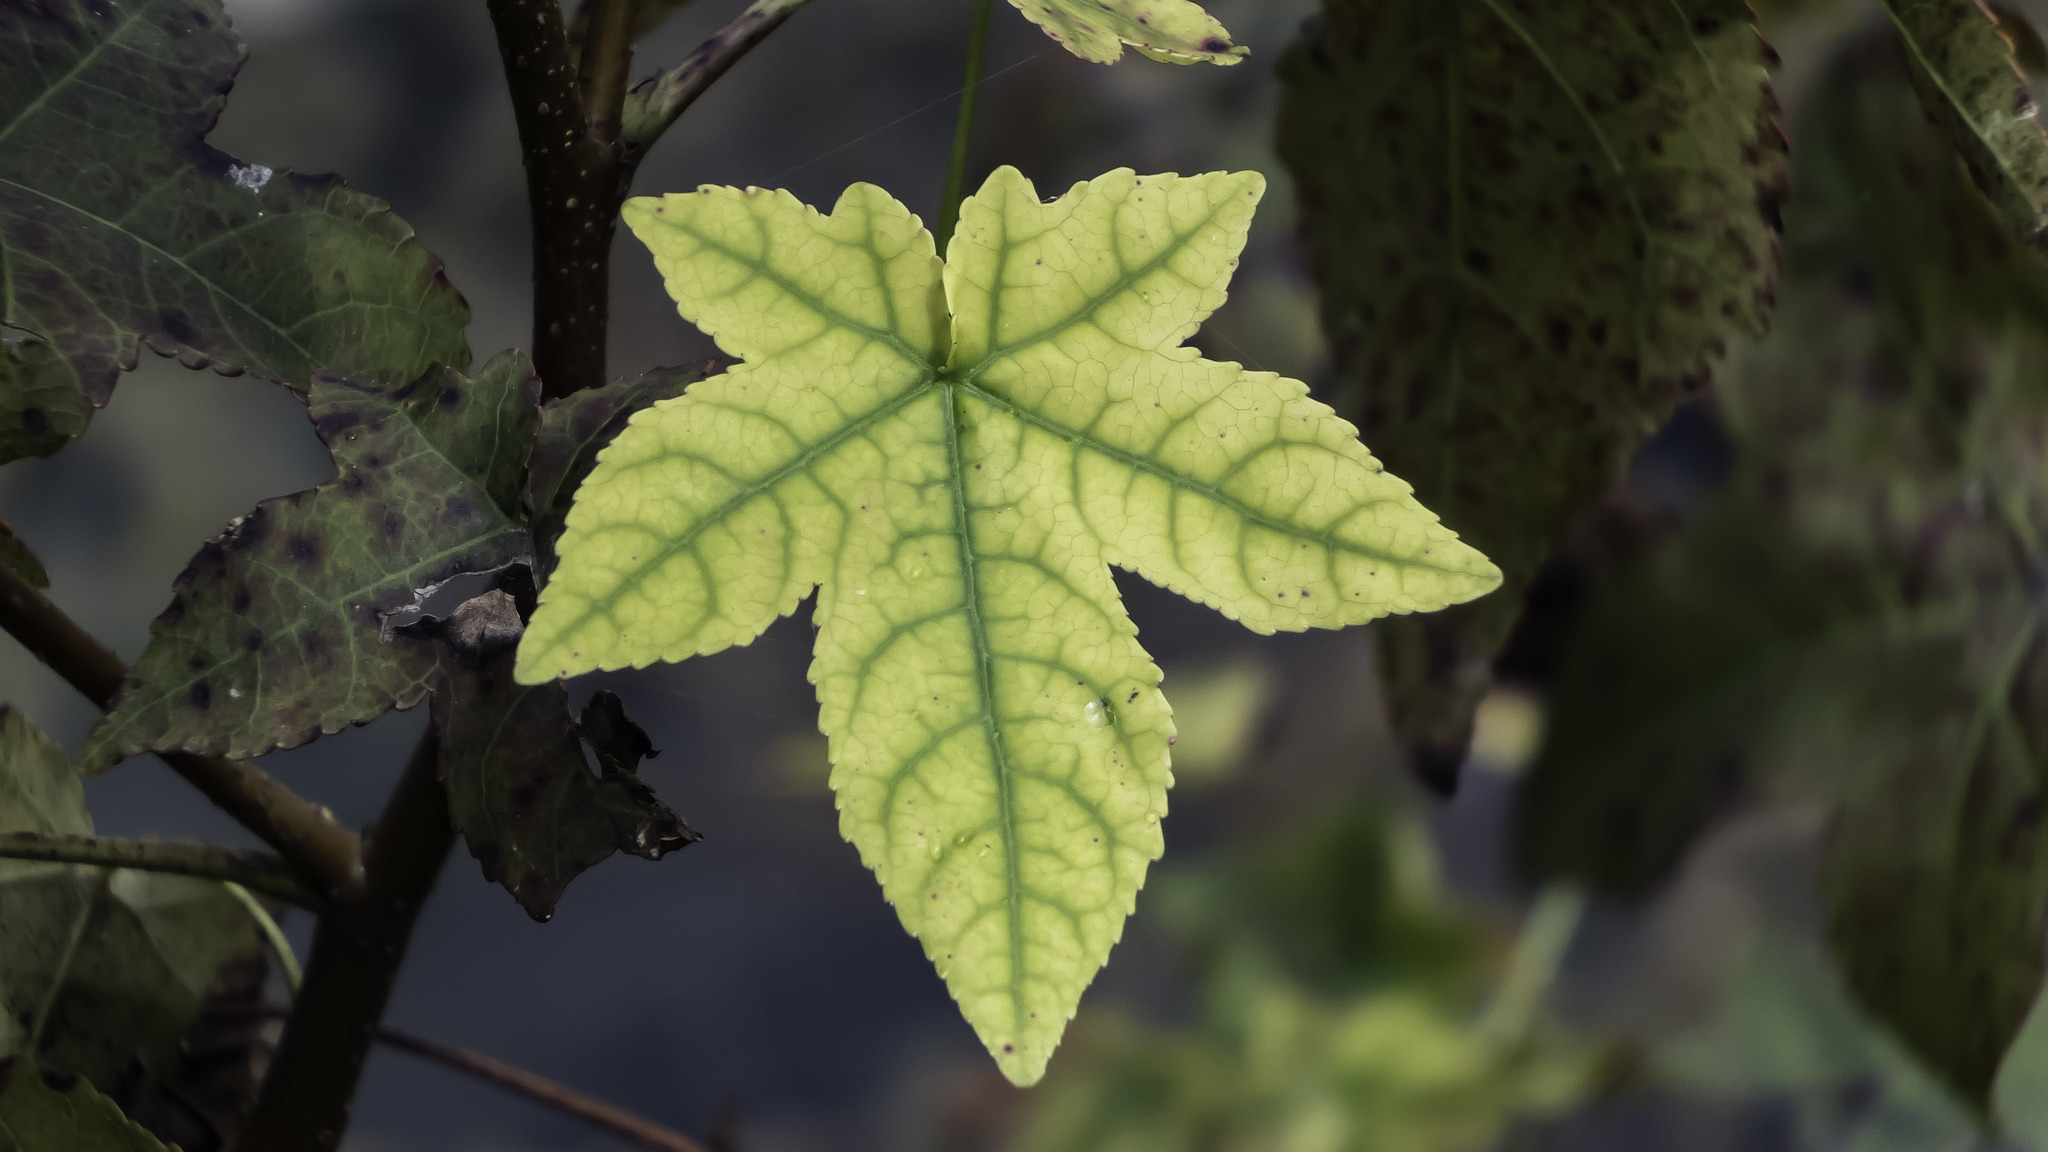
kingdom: Plantae
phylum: Tracheophyta
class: Magnoliopsida
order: Saxifragales
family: Altingiaceae
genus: Liquidambar
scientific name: Liquidambar styraciflua
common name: Sweet gum
